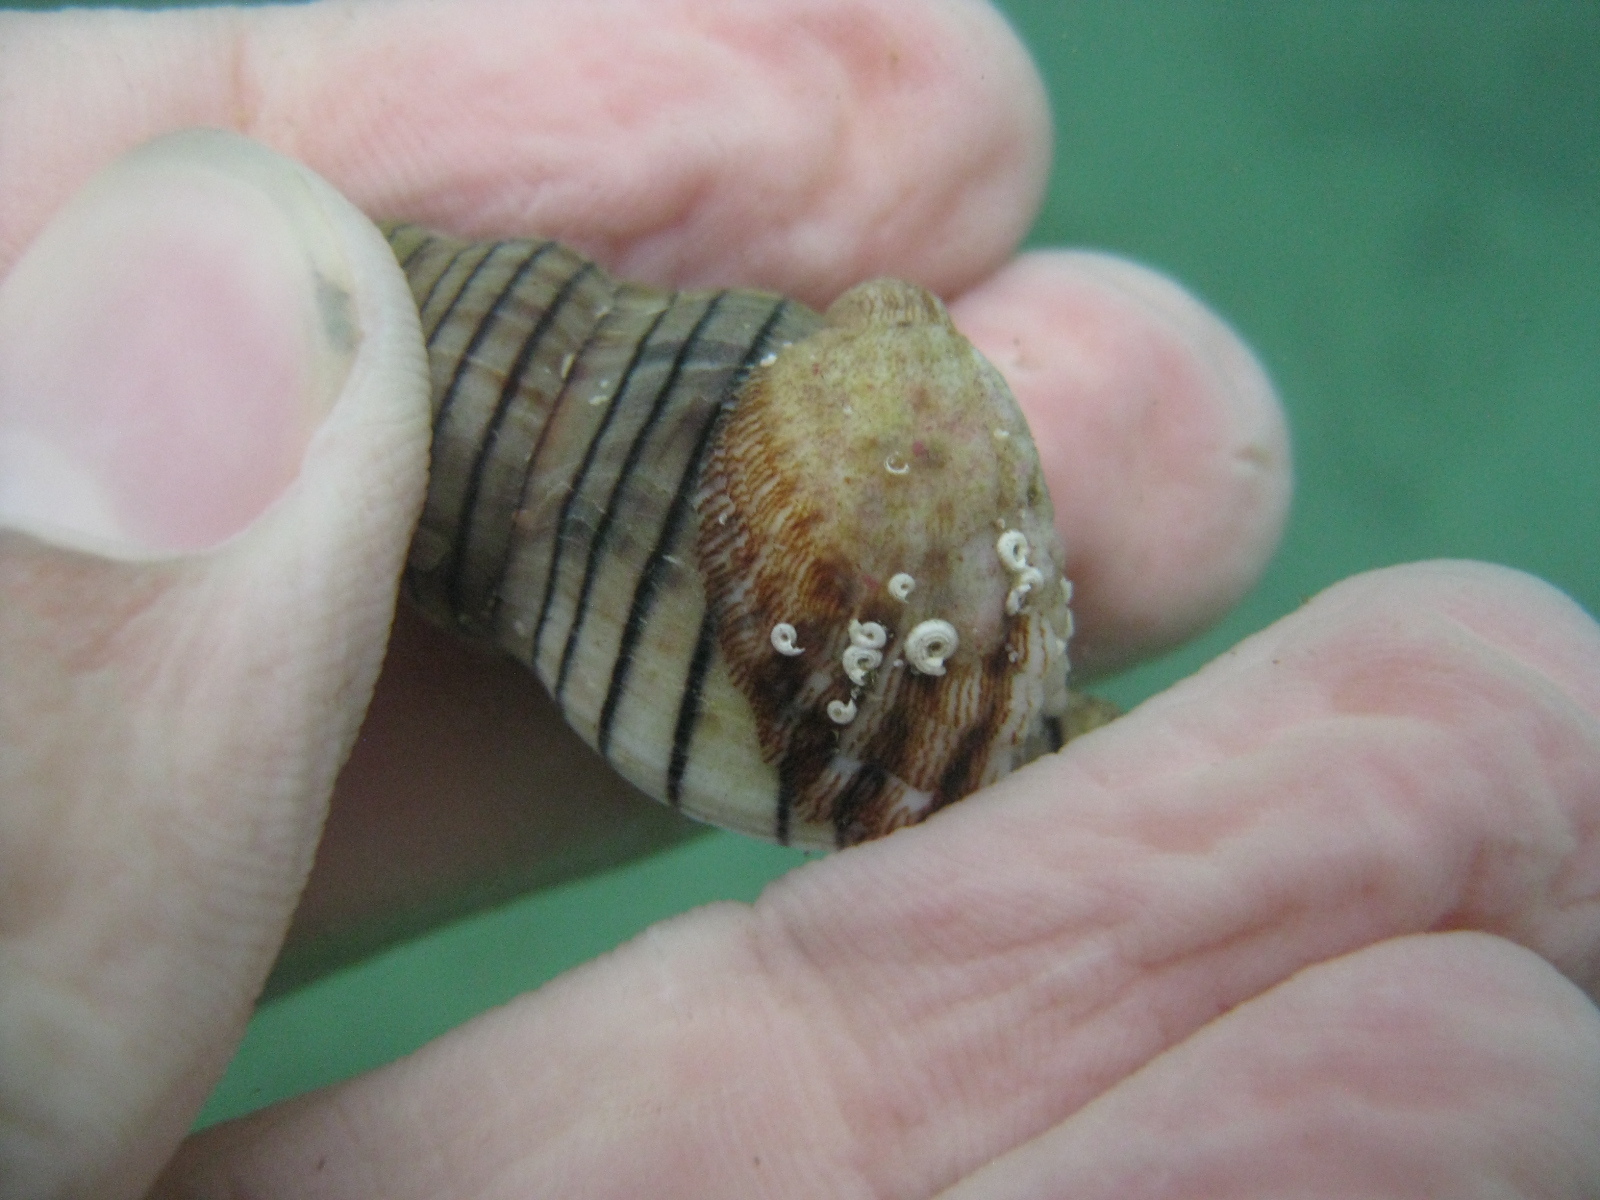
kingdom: Animalia
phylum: Mollusca
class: Gastropoda
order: Littorinimorpha
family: Calyptraeidae
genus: Maoricrypta
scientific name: Maoricrypta costata
